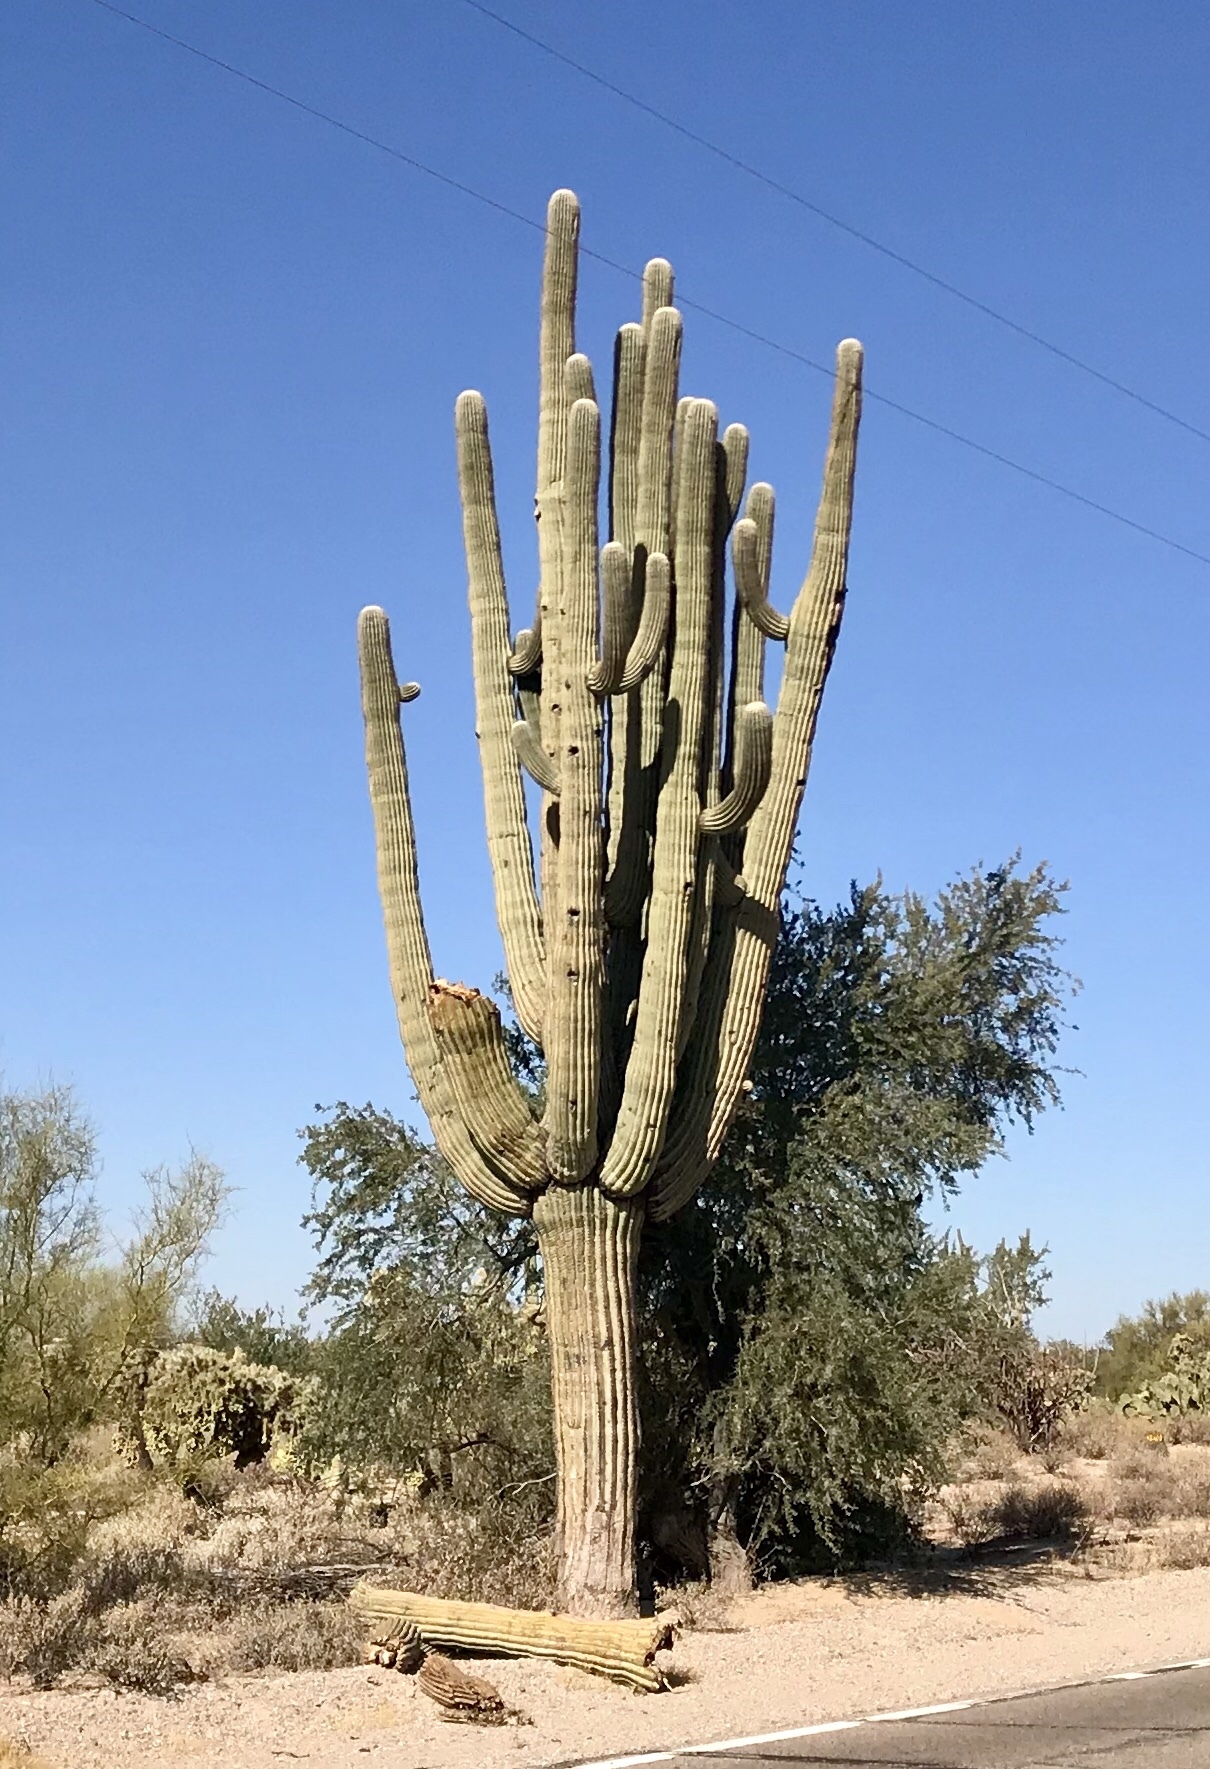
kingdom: Plantae
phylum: Tracheophyta
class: Magnoliopsida
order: Caryophyllales
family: Cactaceae
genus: Carnegiea
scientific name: Carnegiea gigantea
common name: Saguaro
